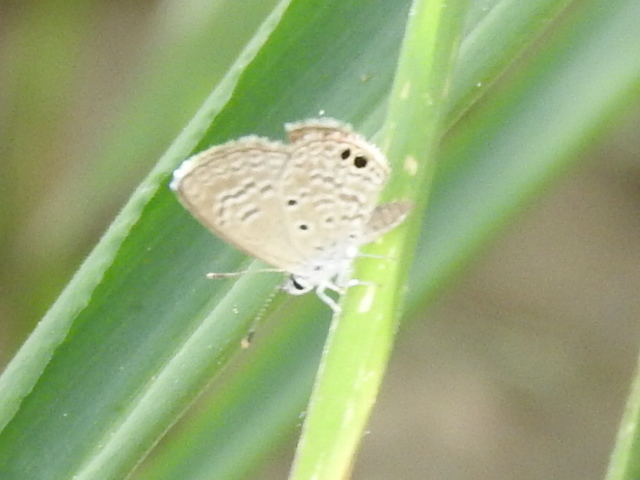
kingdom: Animalia
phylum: Arthropoda
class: Insecta
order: Lepidoptera
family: Lycaenidae
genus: Hemiargus
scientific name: Hemiargus ceraunus
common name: Ceraunus blue
